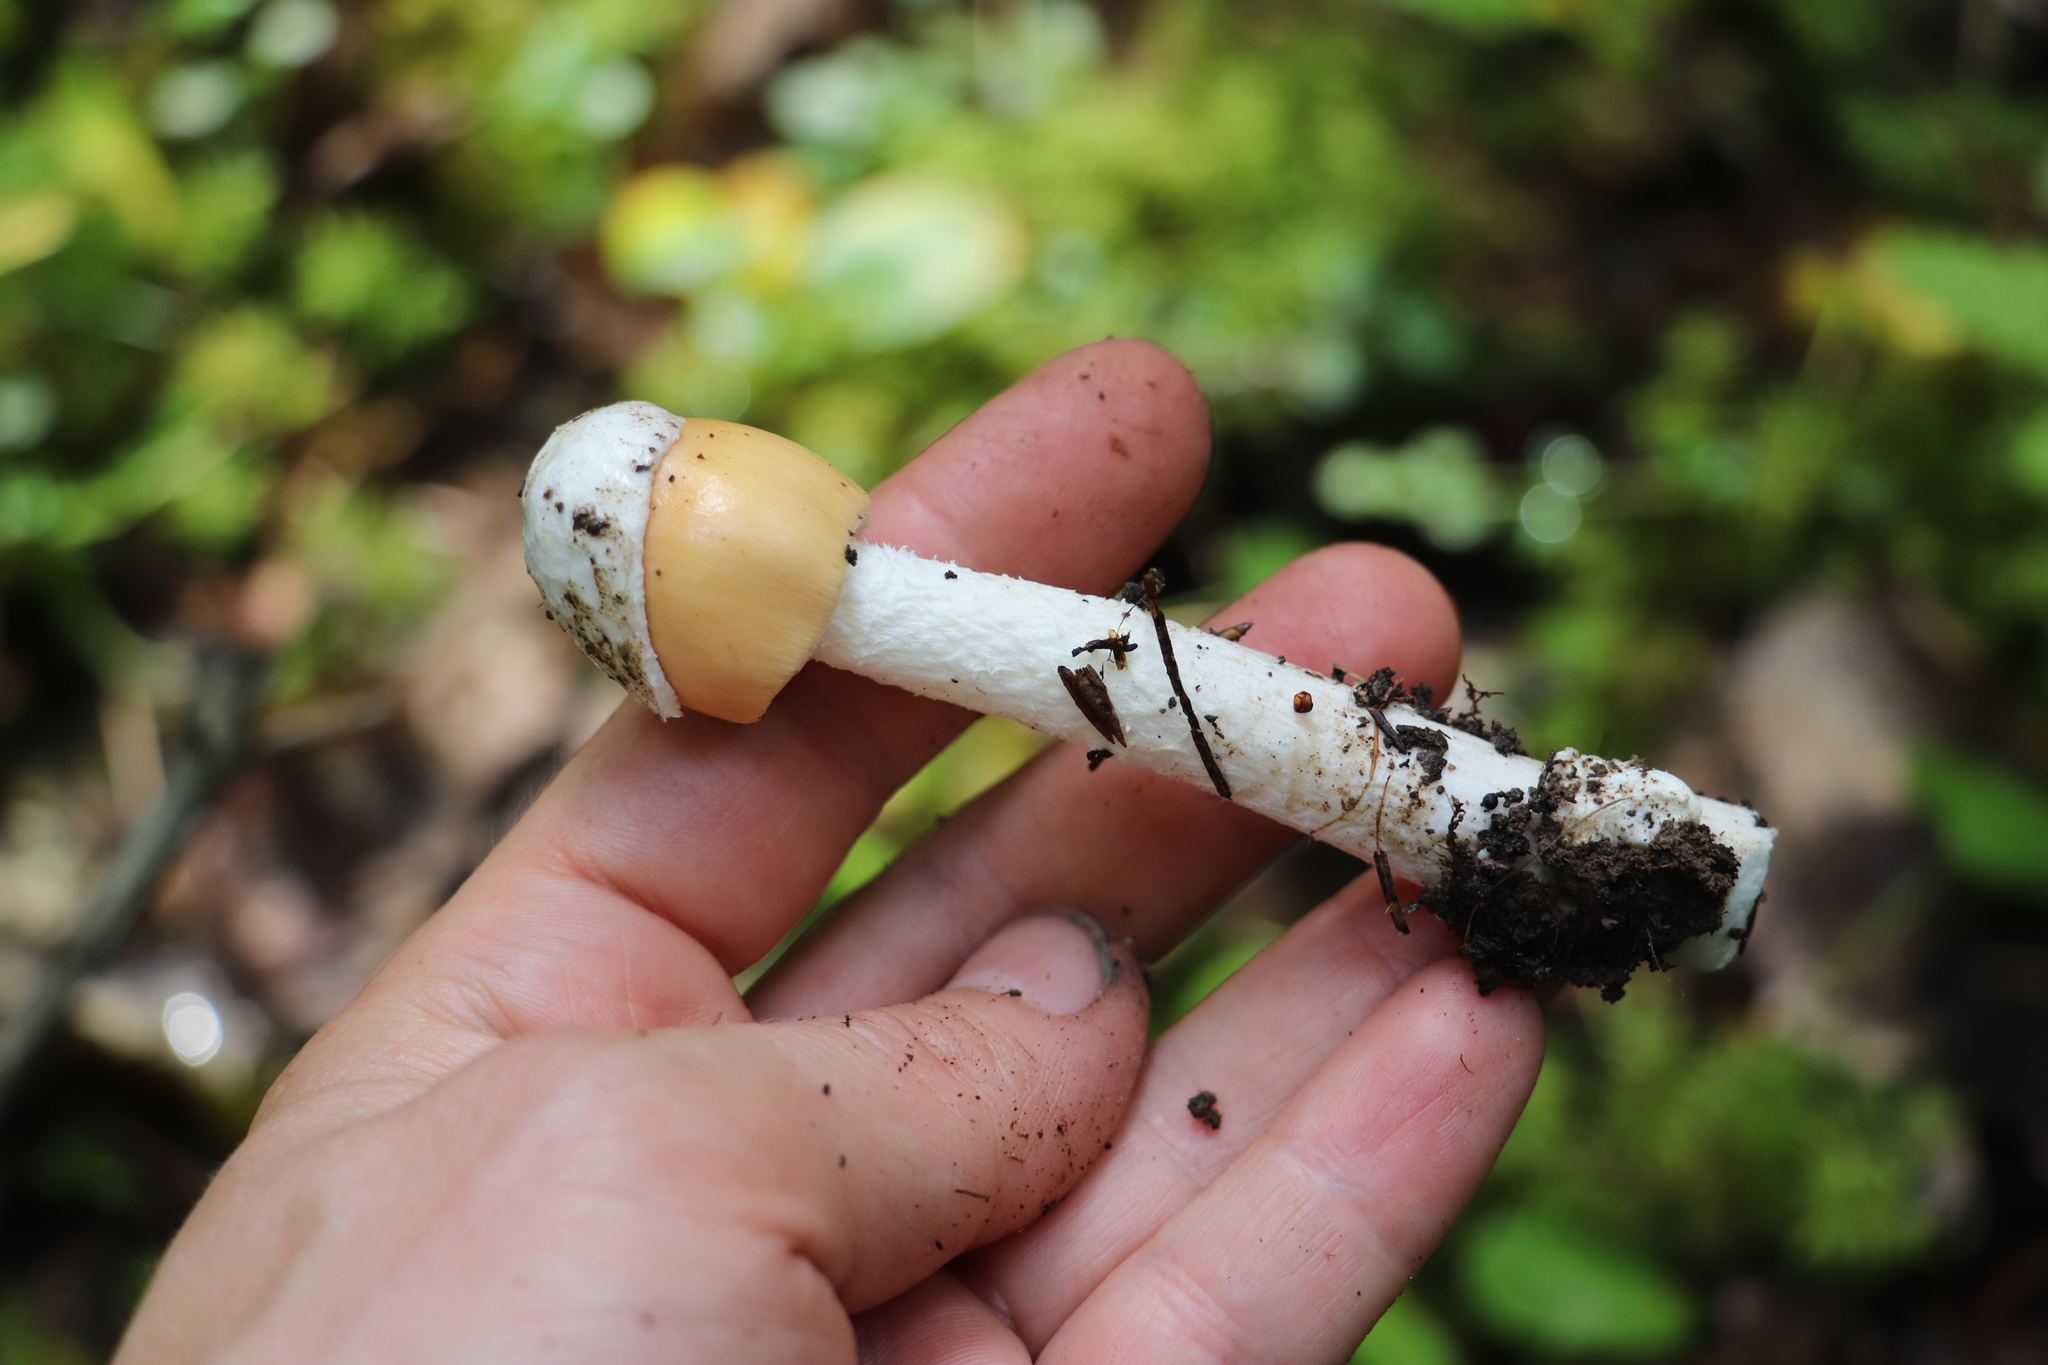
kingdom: Fungi
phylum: Basidiomycota
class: Agaricomycetes
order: Agaricales
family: Amanitaceae
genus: Amanita
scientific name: Amanita crocea
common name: Orange grisette
